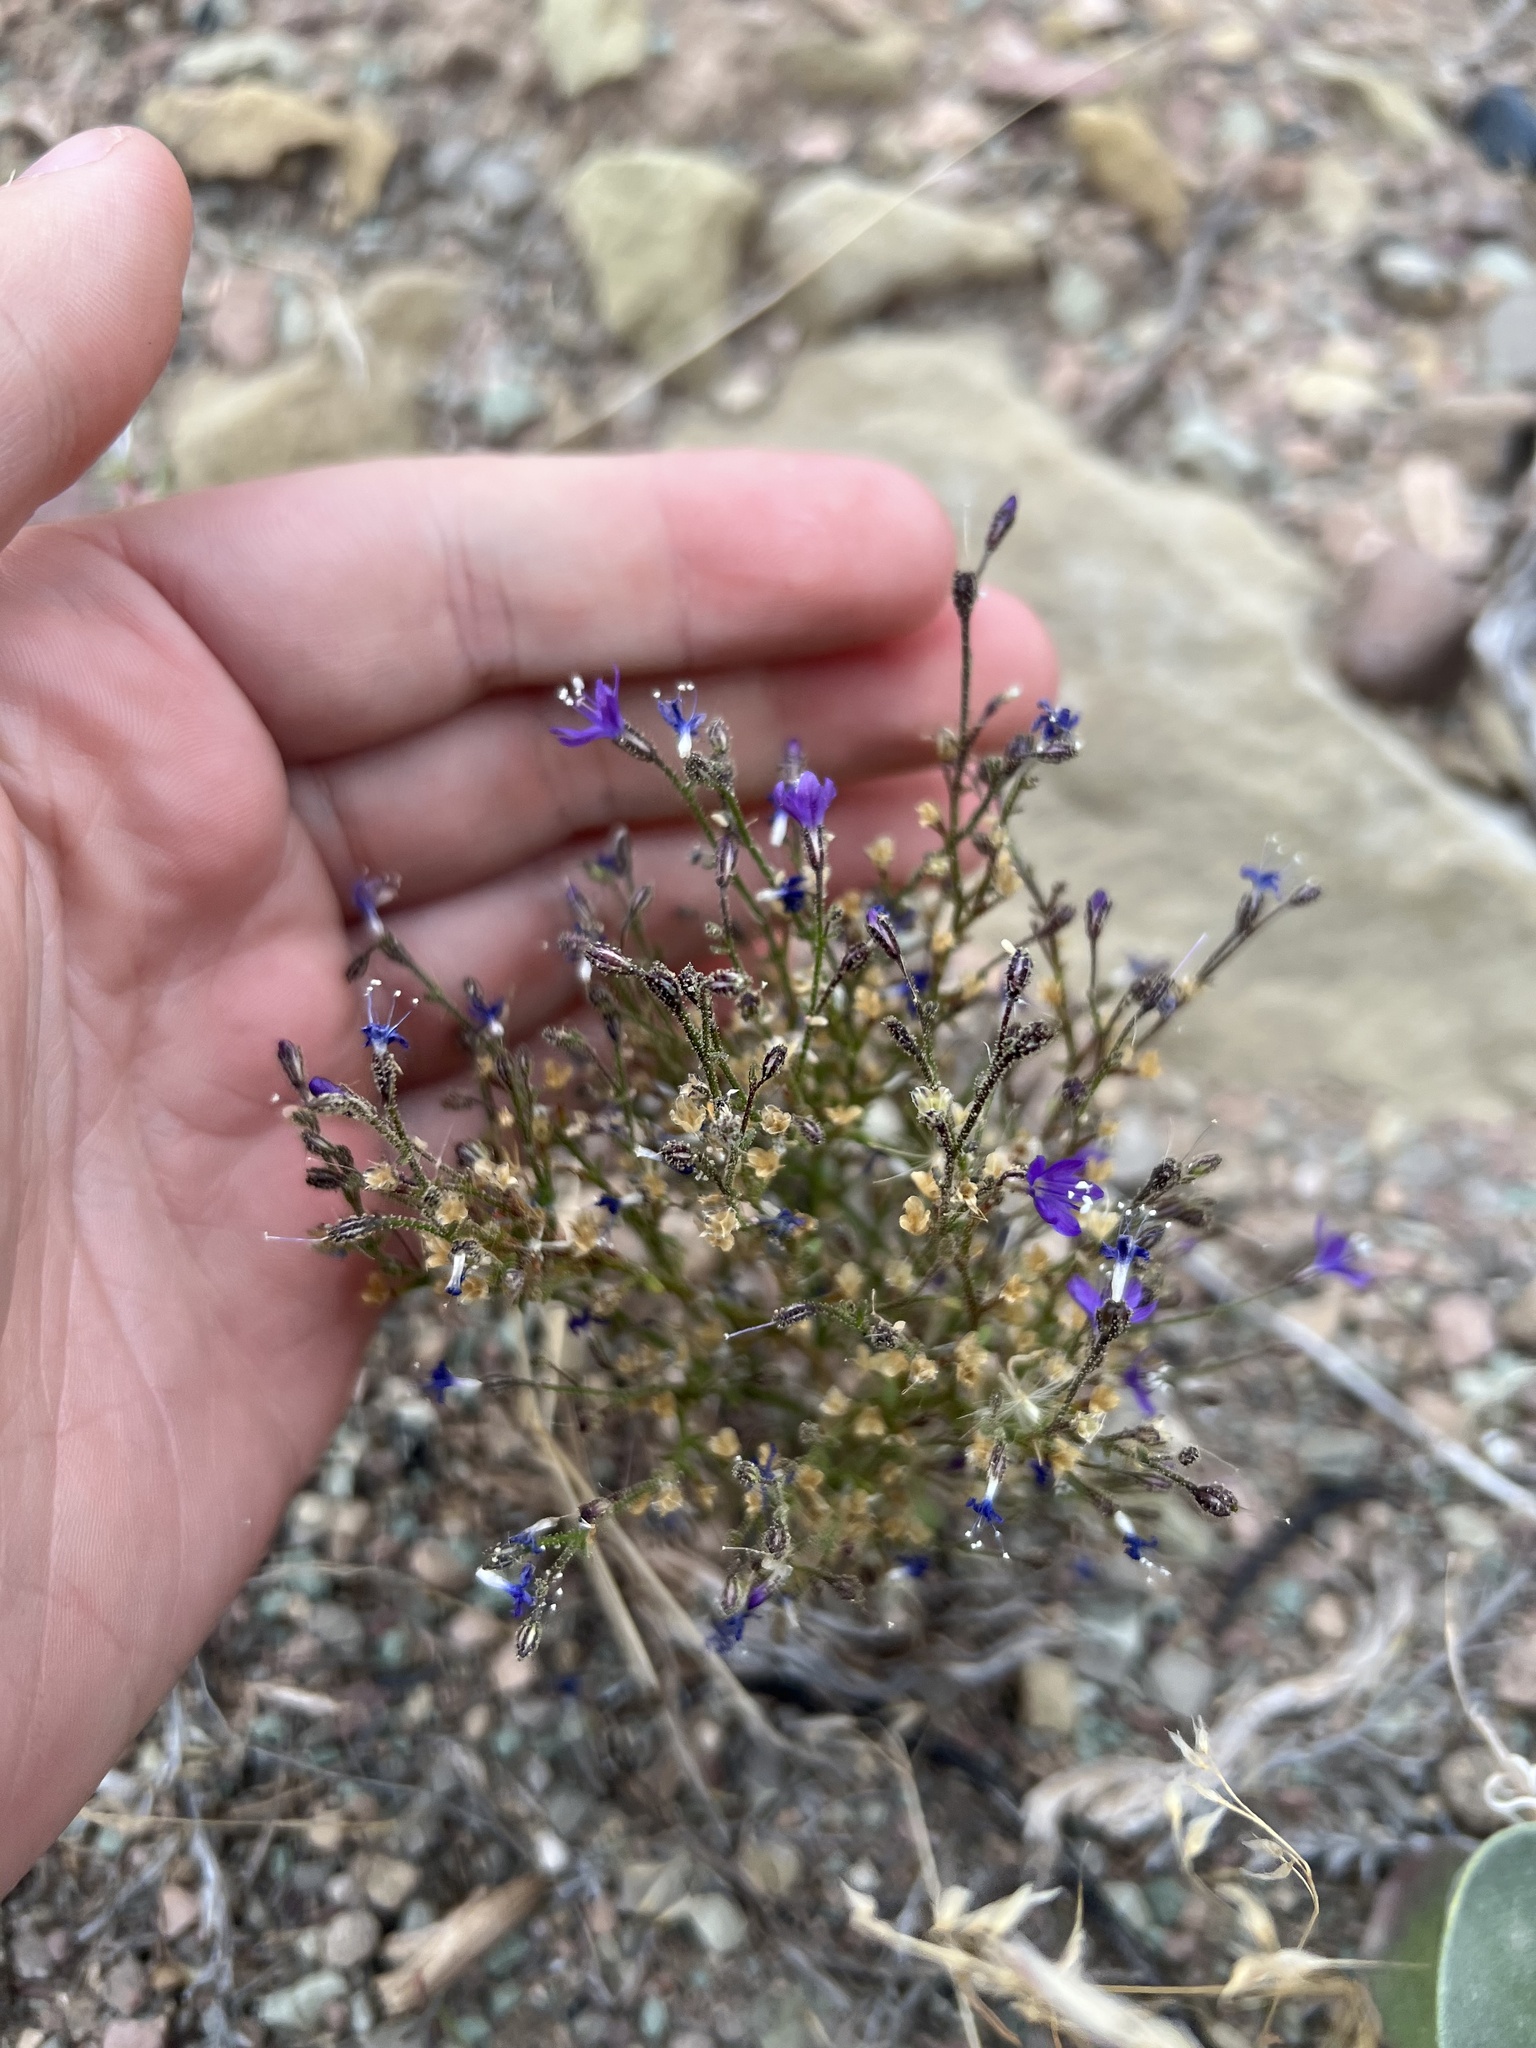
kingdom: Plantae
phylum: Tracheophyta
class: Magnoliopsida
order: Ericales
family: Polemoniaceae
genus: Aliciella
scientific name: Aliciella pinnatifida
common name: Sticky gilia
